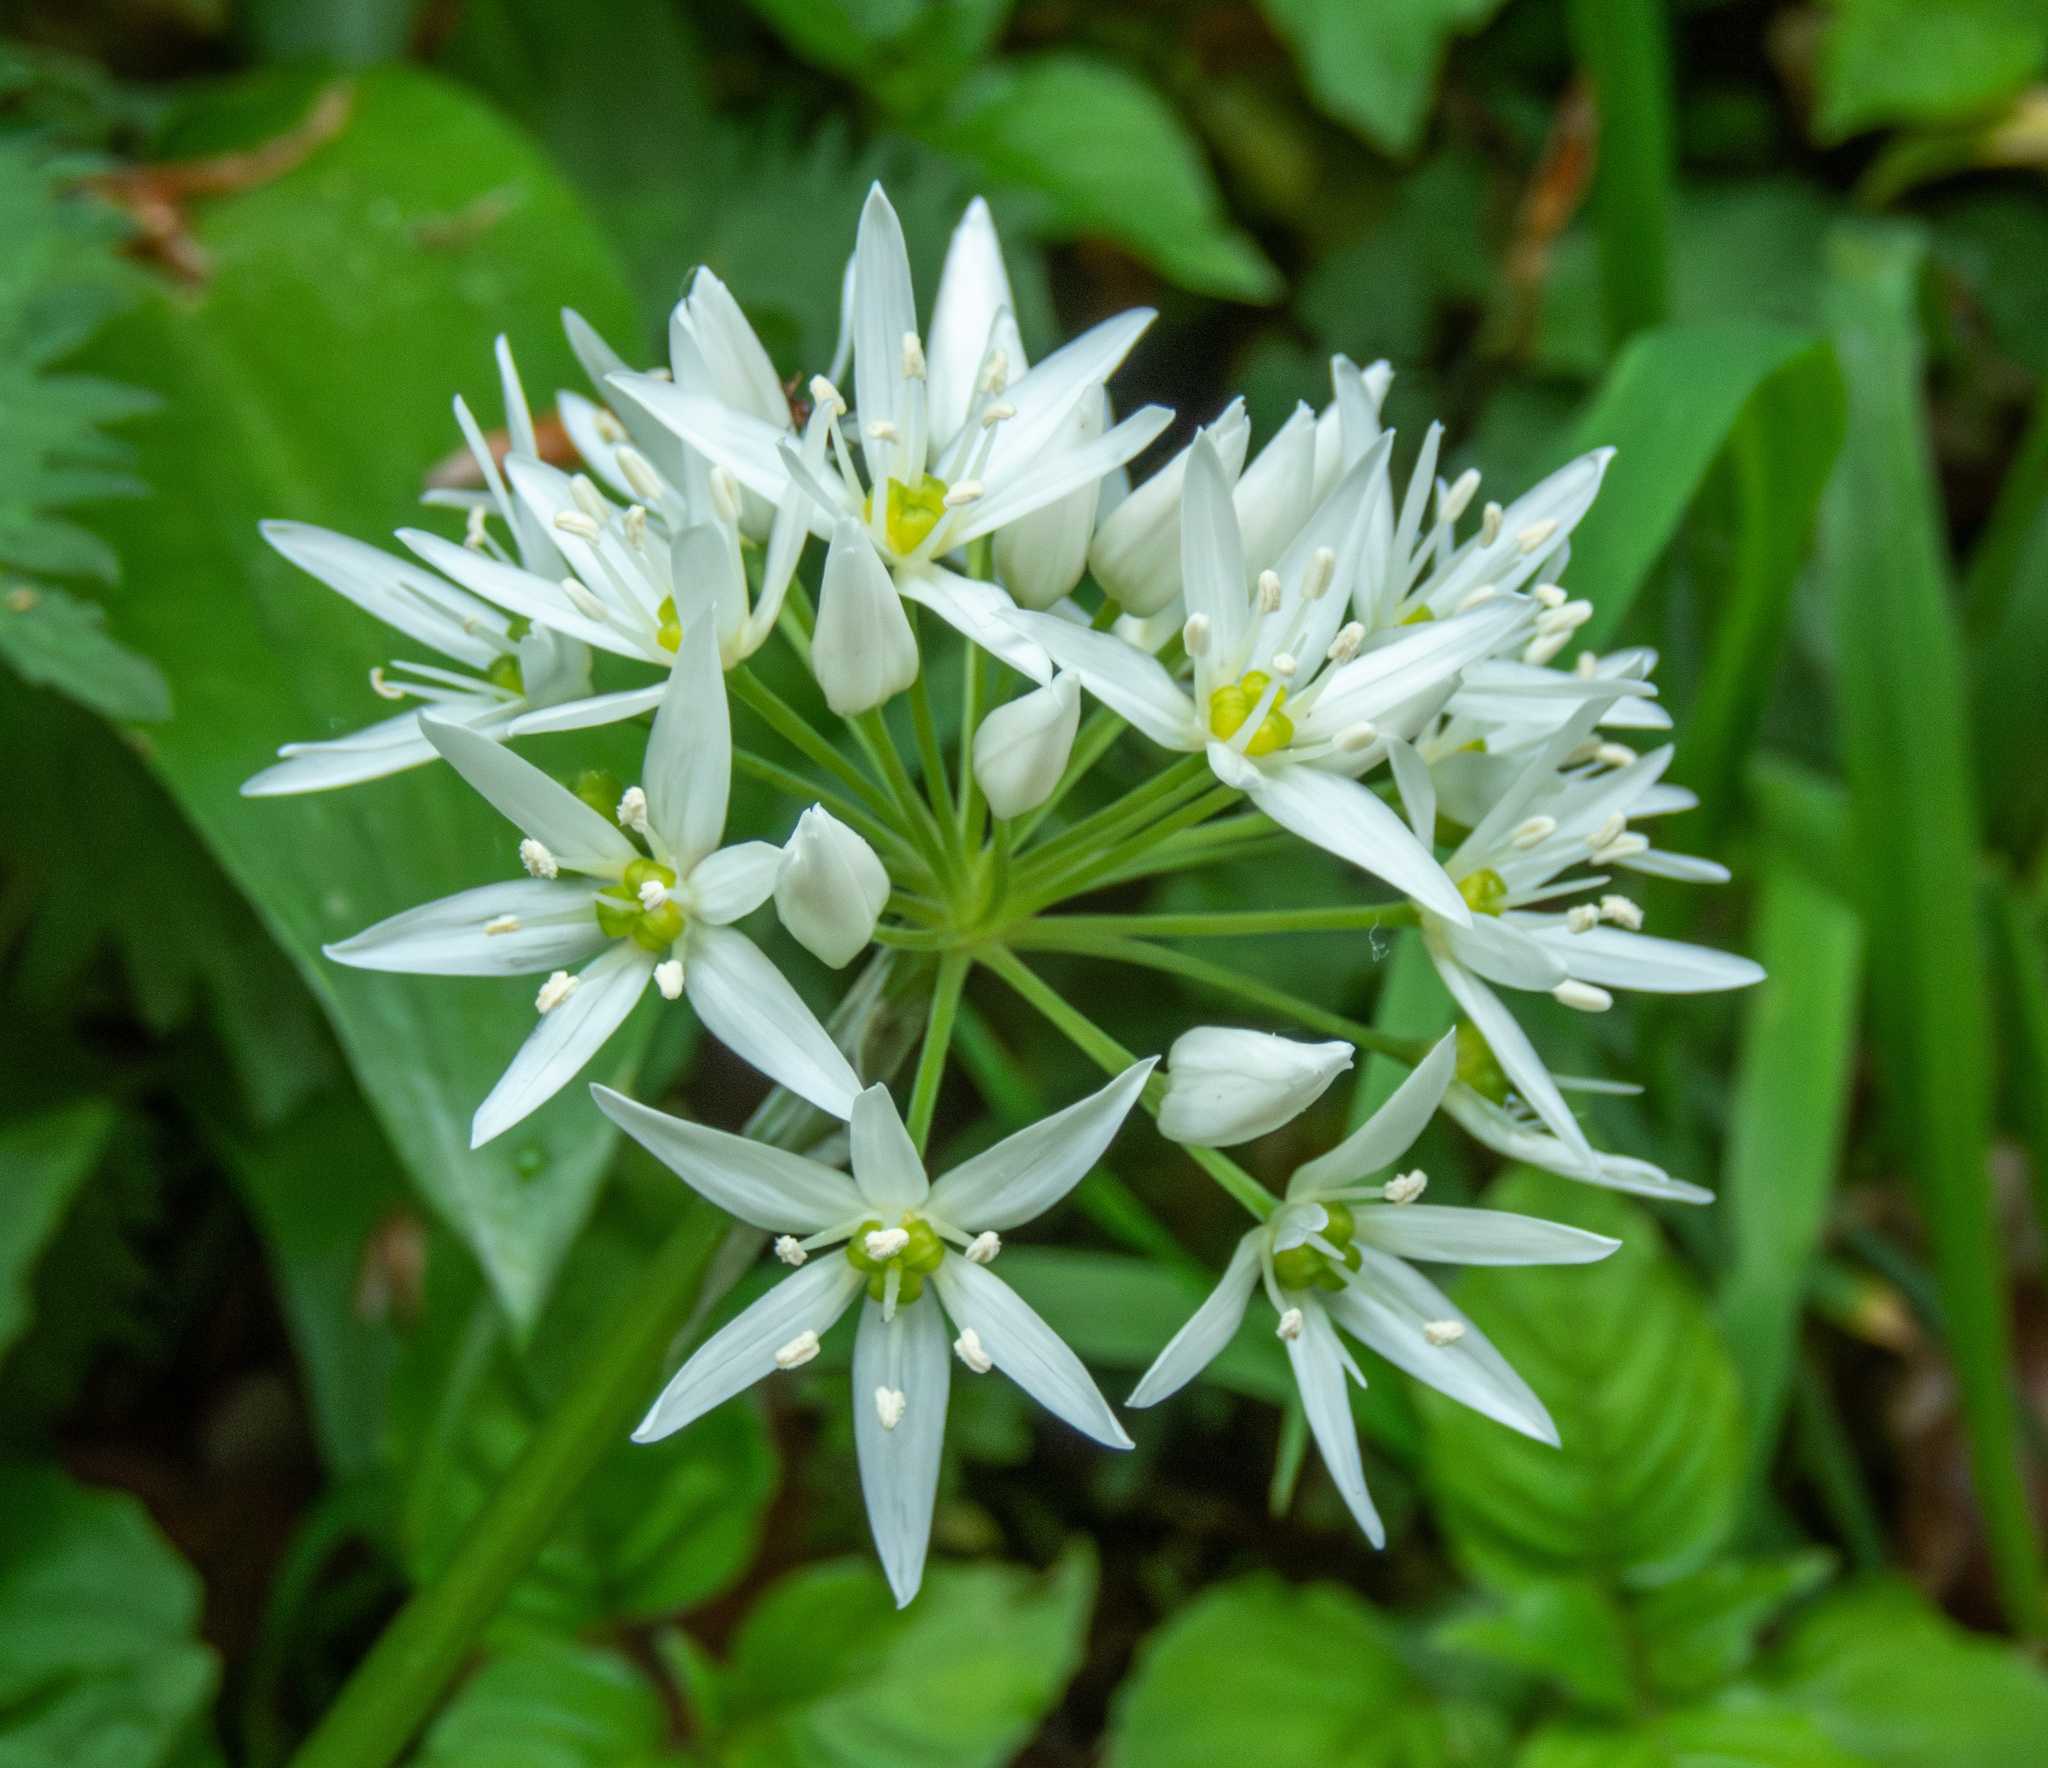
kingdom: Plantae
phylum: Tracheophyta
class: Liliopsida
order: Asparagales
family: Amaryllidaceae
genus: Allium
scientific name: Allium ursinum
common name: Ramsons
